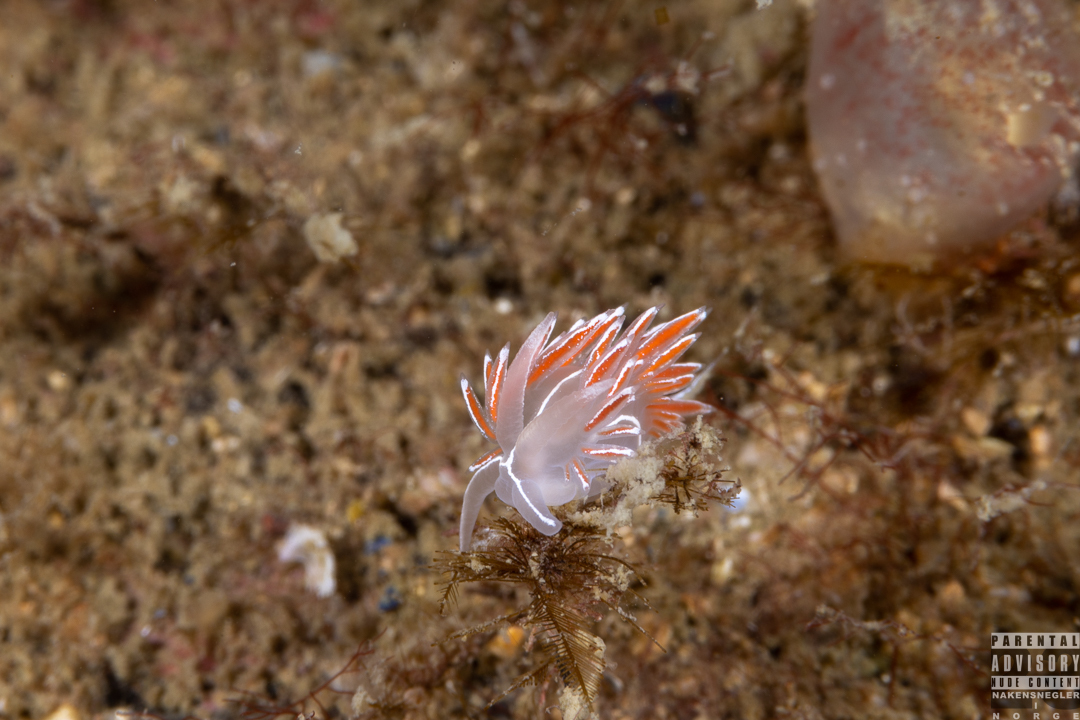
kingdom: Animalia
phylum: Mollusca
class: Gastropoda
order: Nudibranchia
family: Coryphellidae
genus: Coryphella
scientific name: Coryphella lineata
